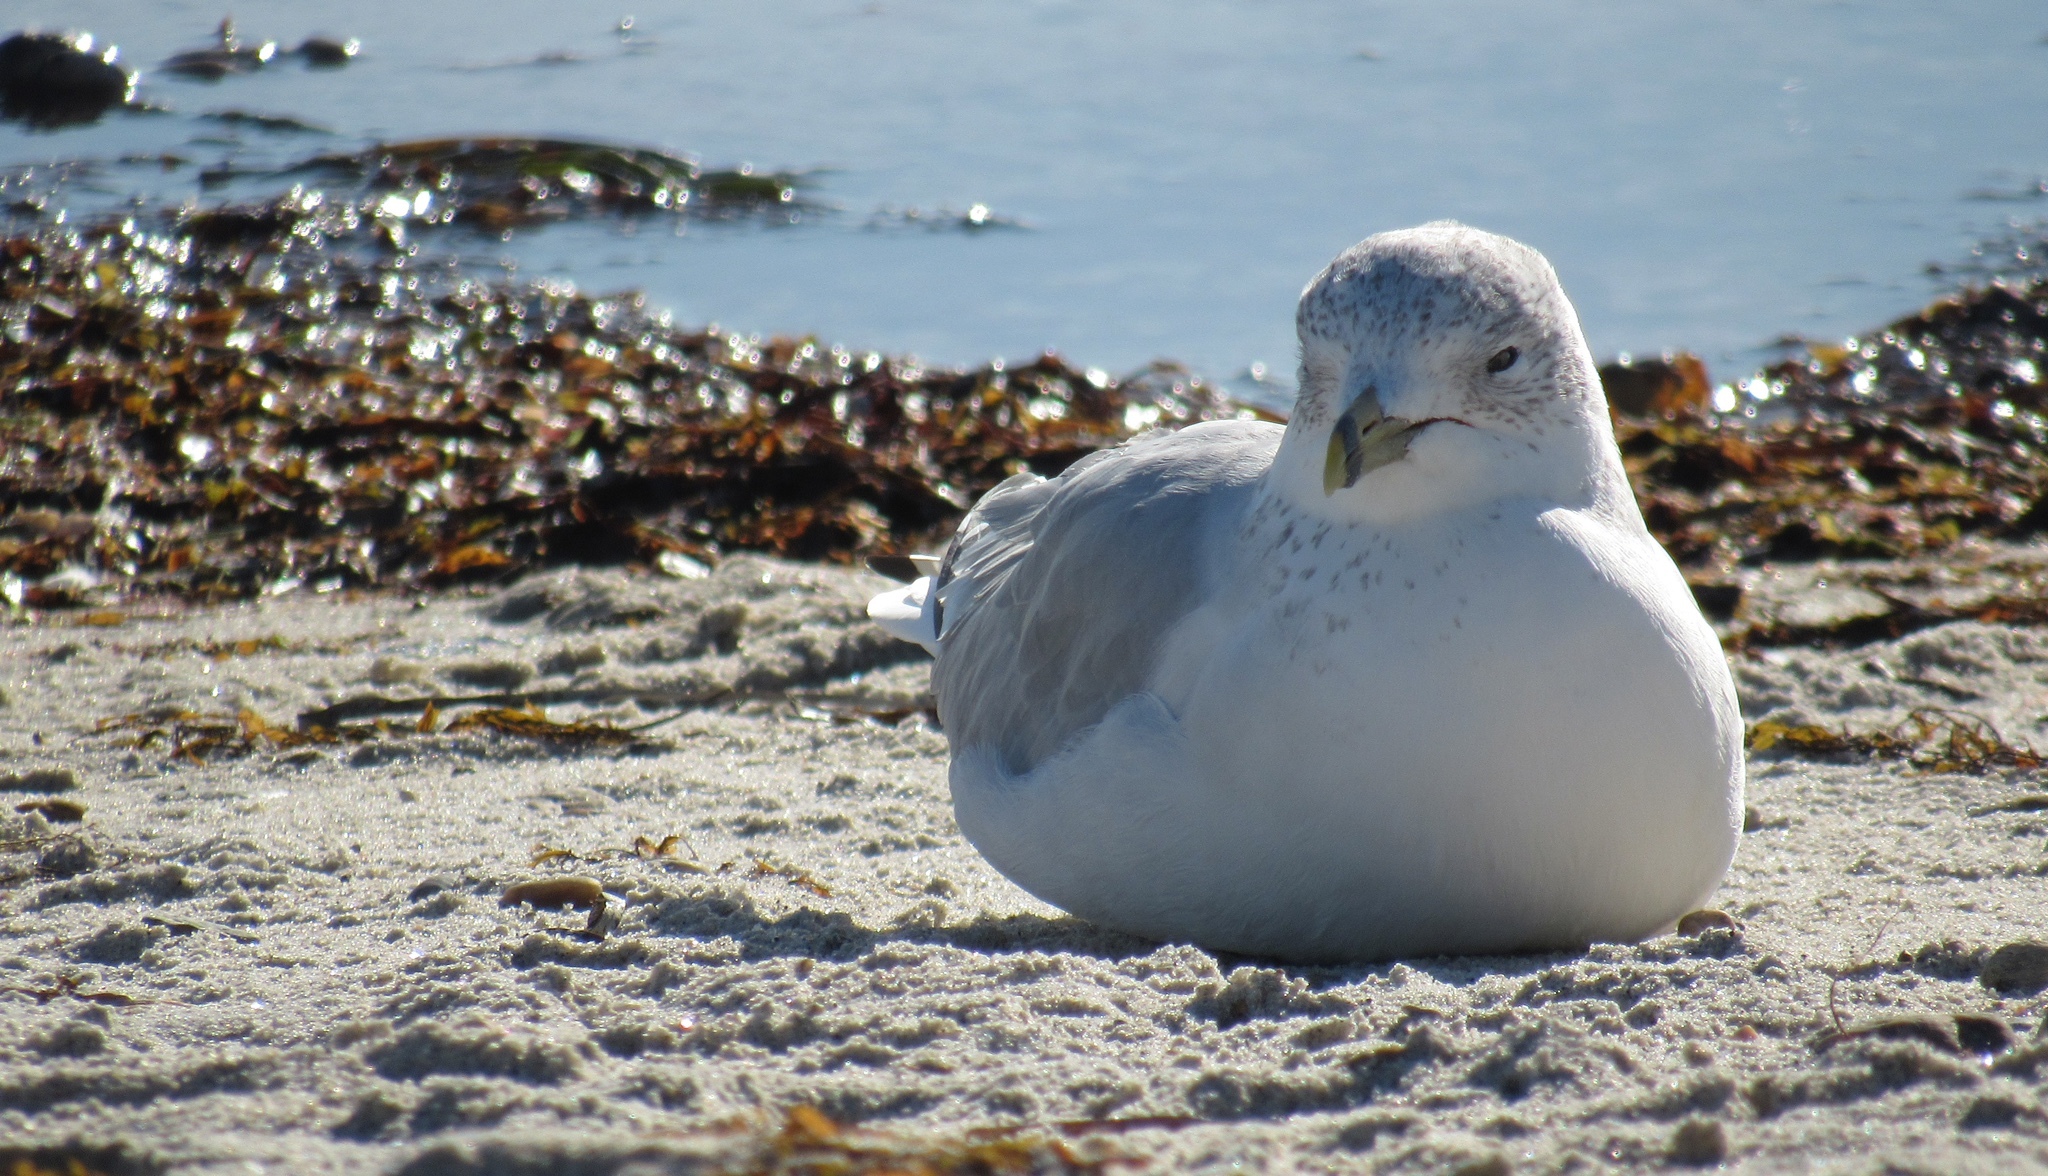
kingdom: Animalia
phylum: Chordata
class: Aves
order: Charadriiformes
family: Laridae
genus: Larus
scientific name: Larus delawarensis
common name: Ring-billed gull
